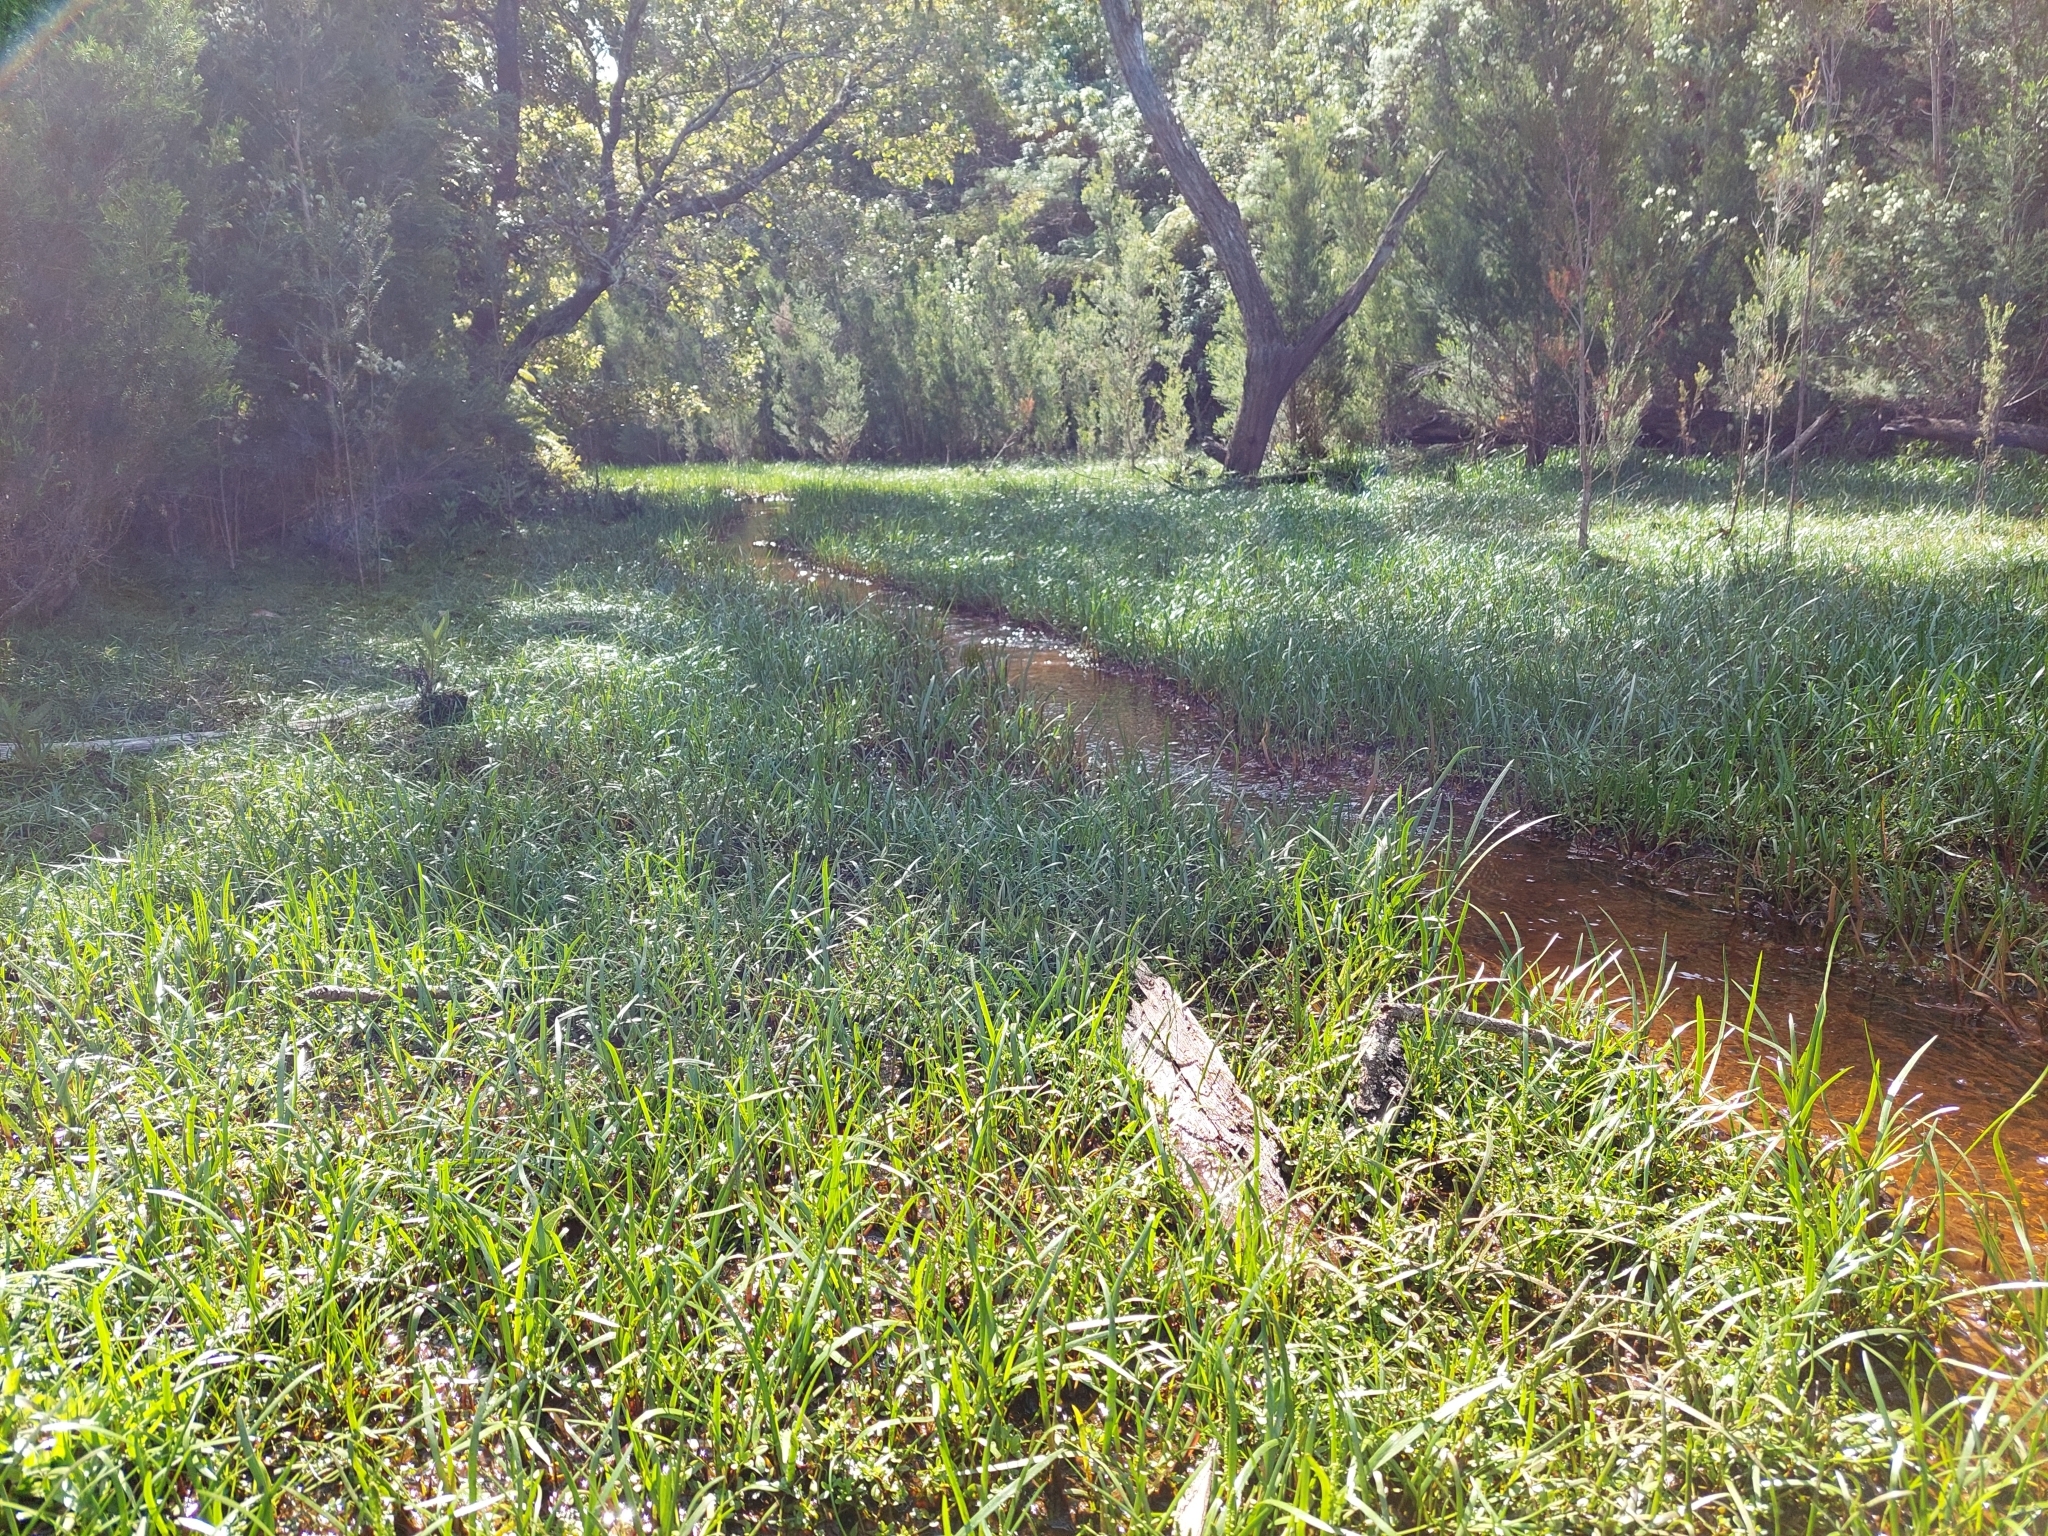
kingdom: Plantae
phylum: Tracheophyta
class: Liliopsida
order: Alismatales
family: Juncaginaceae
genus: Triglochin
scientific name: Triglochin striata
